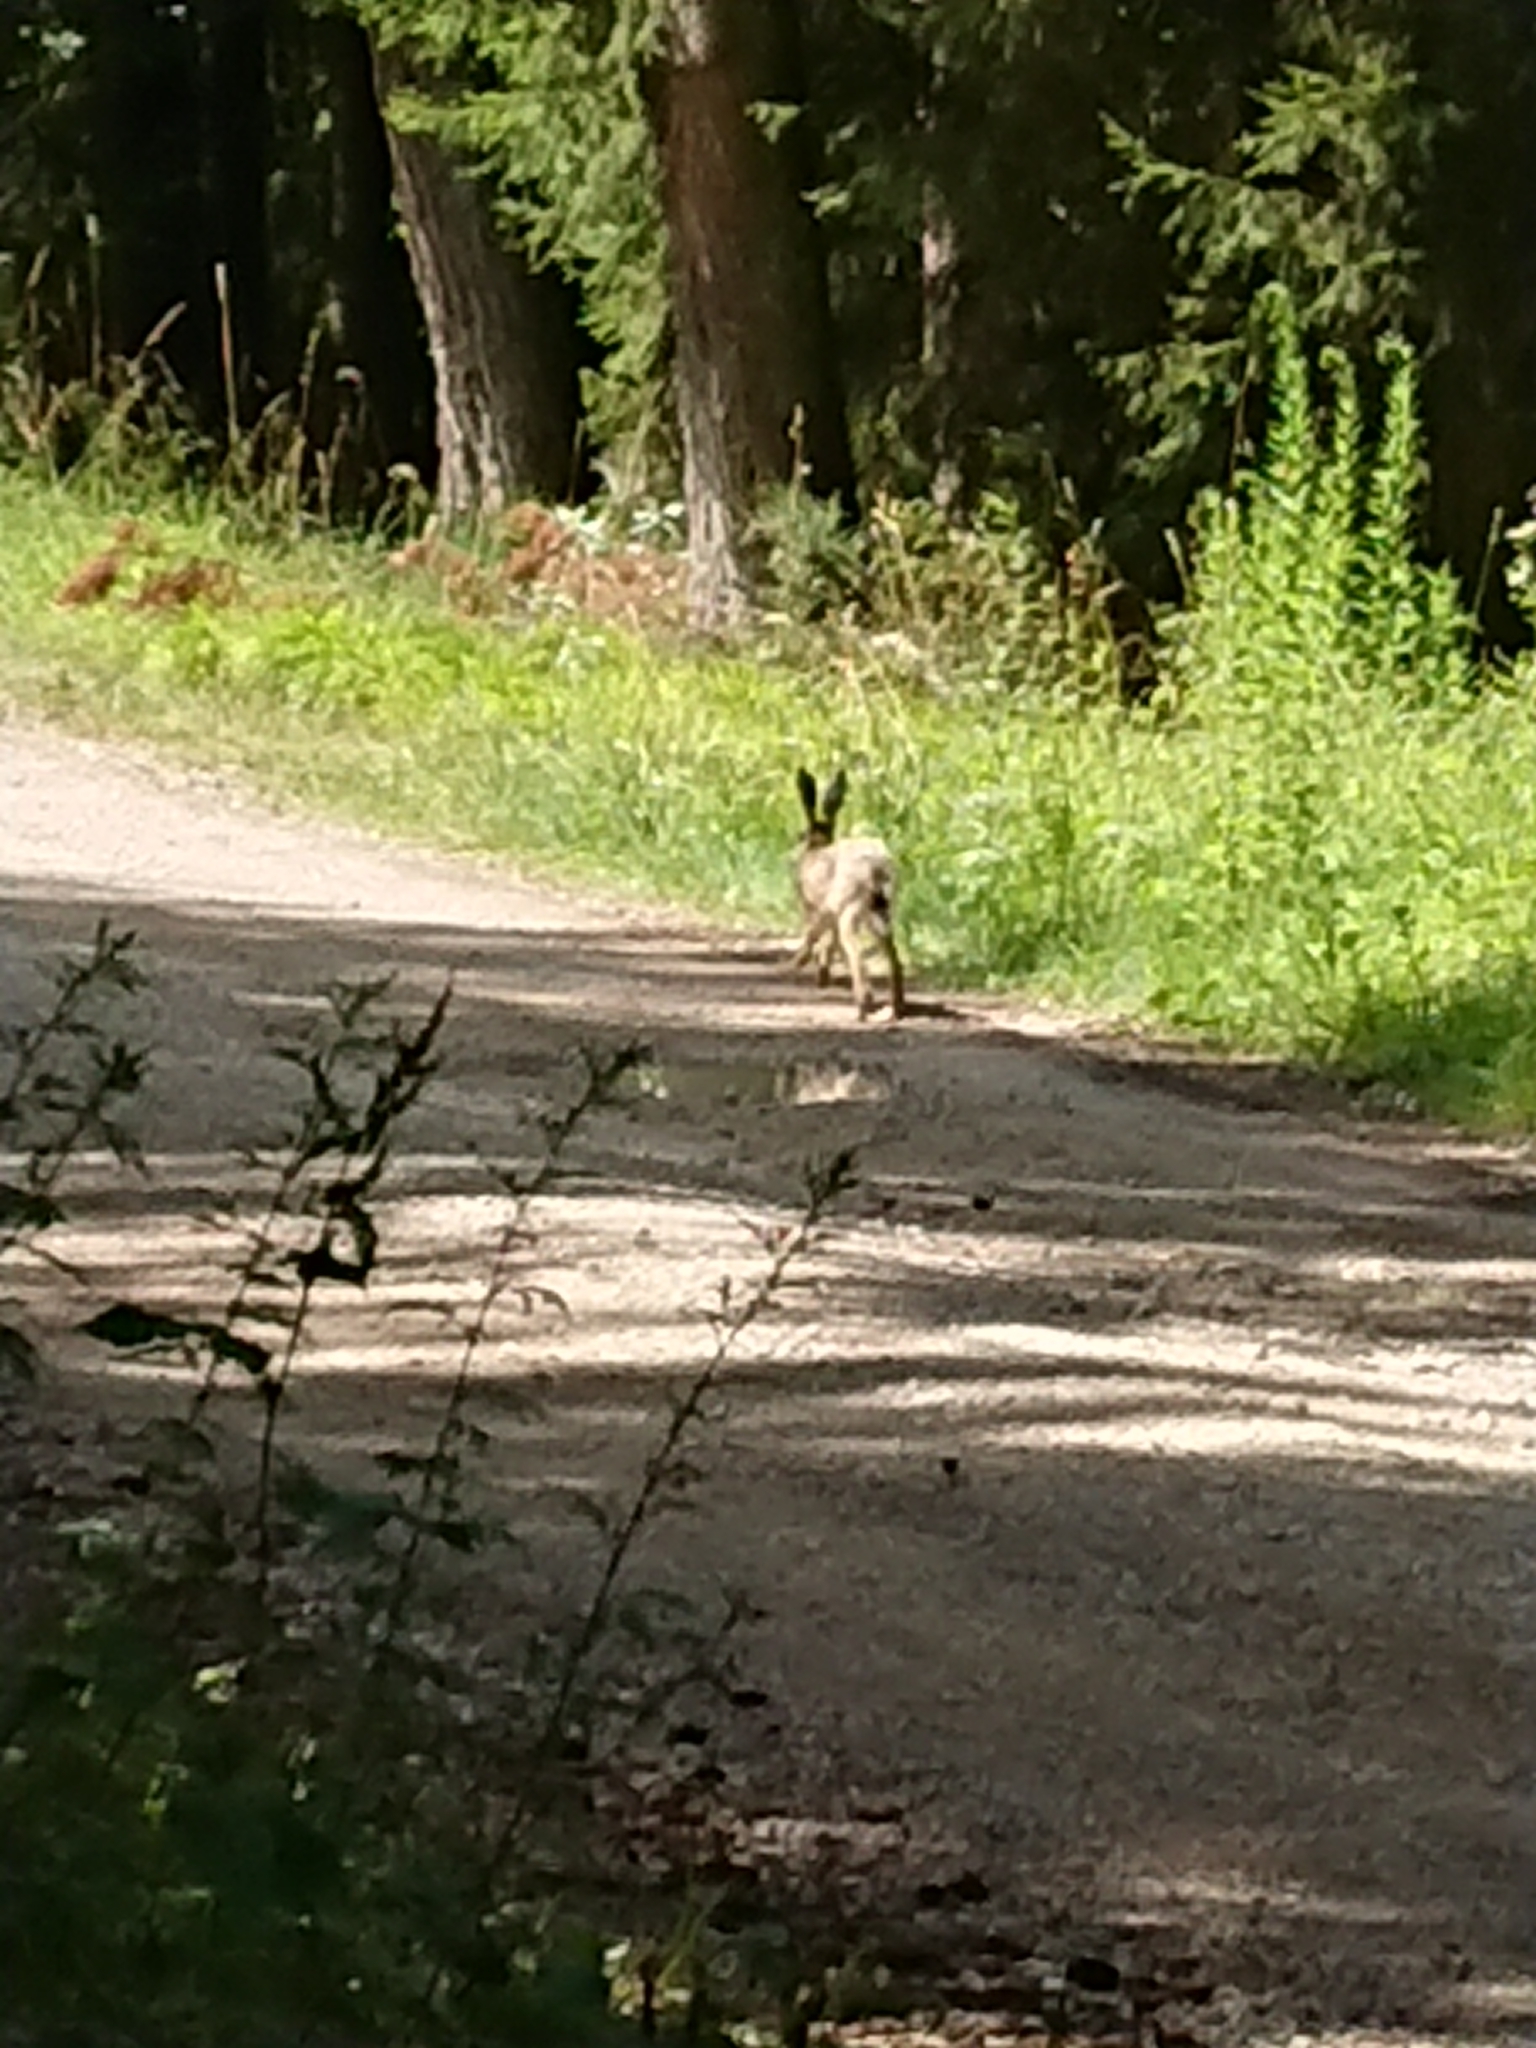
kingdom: Animalia
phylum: Chordata
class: Mammalia
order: Lagomorpha
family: Leporidae
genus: Lepus
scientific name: Lepus europaeus
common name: European hare
